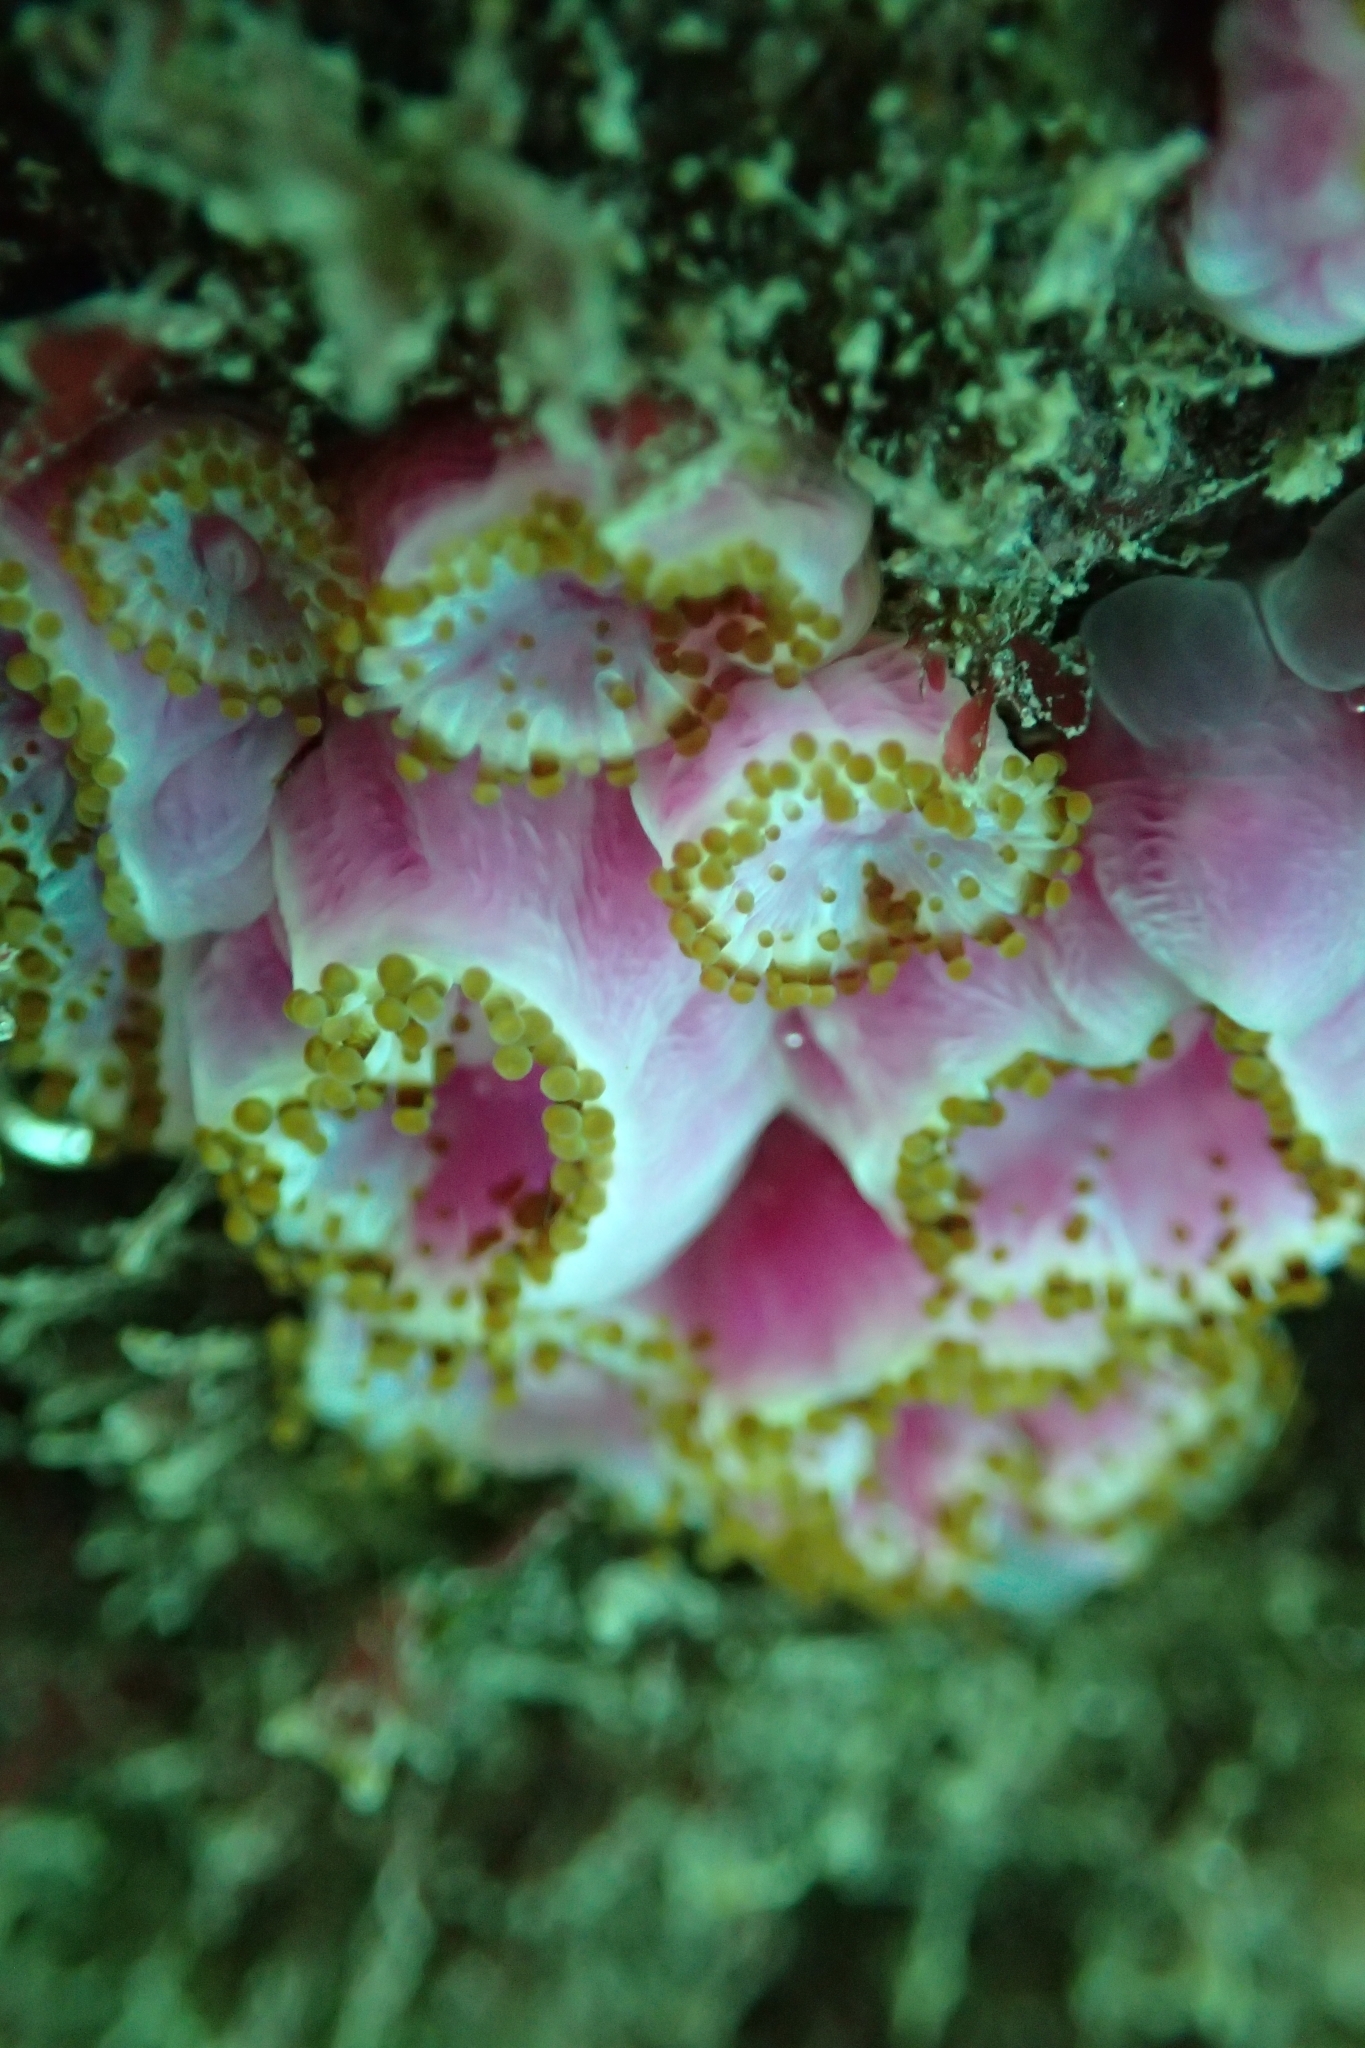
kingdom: Animalia
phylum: Cnidaria
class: Anthozoa
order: Corallimorpharia
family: Corallimorphidae
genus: Corynactis
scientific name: Corynactis australis
